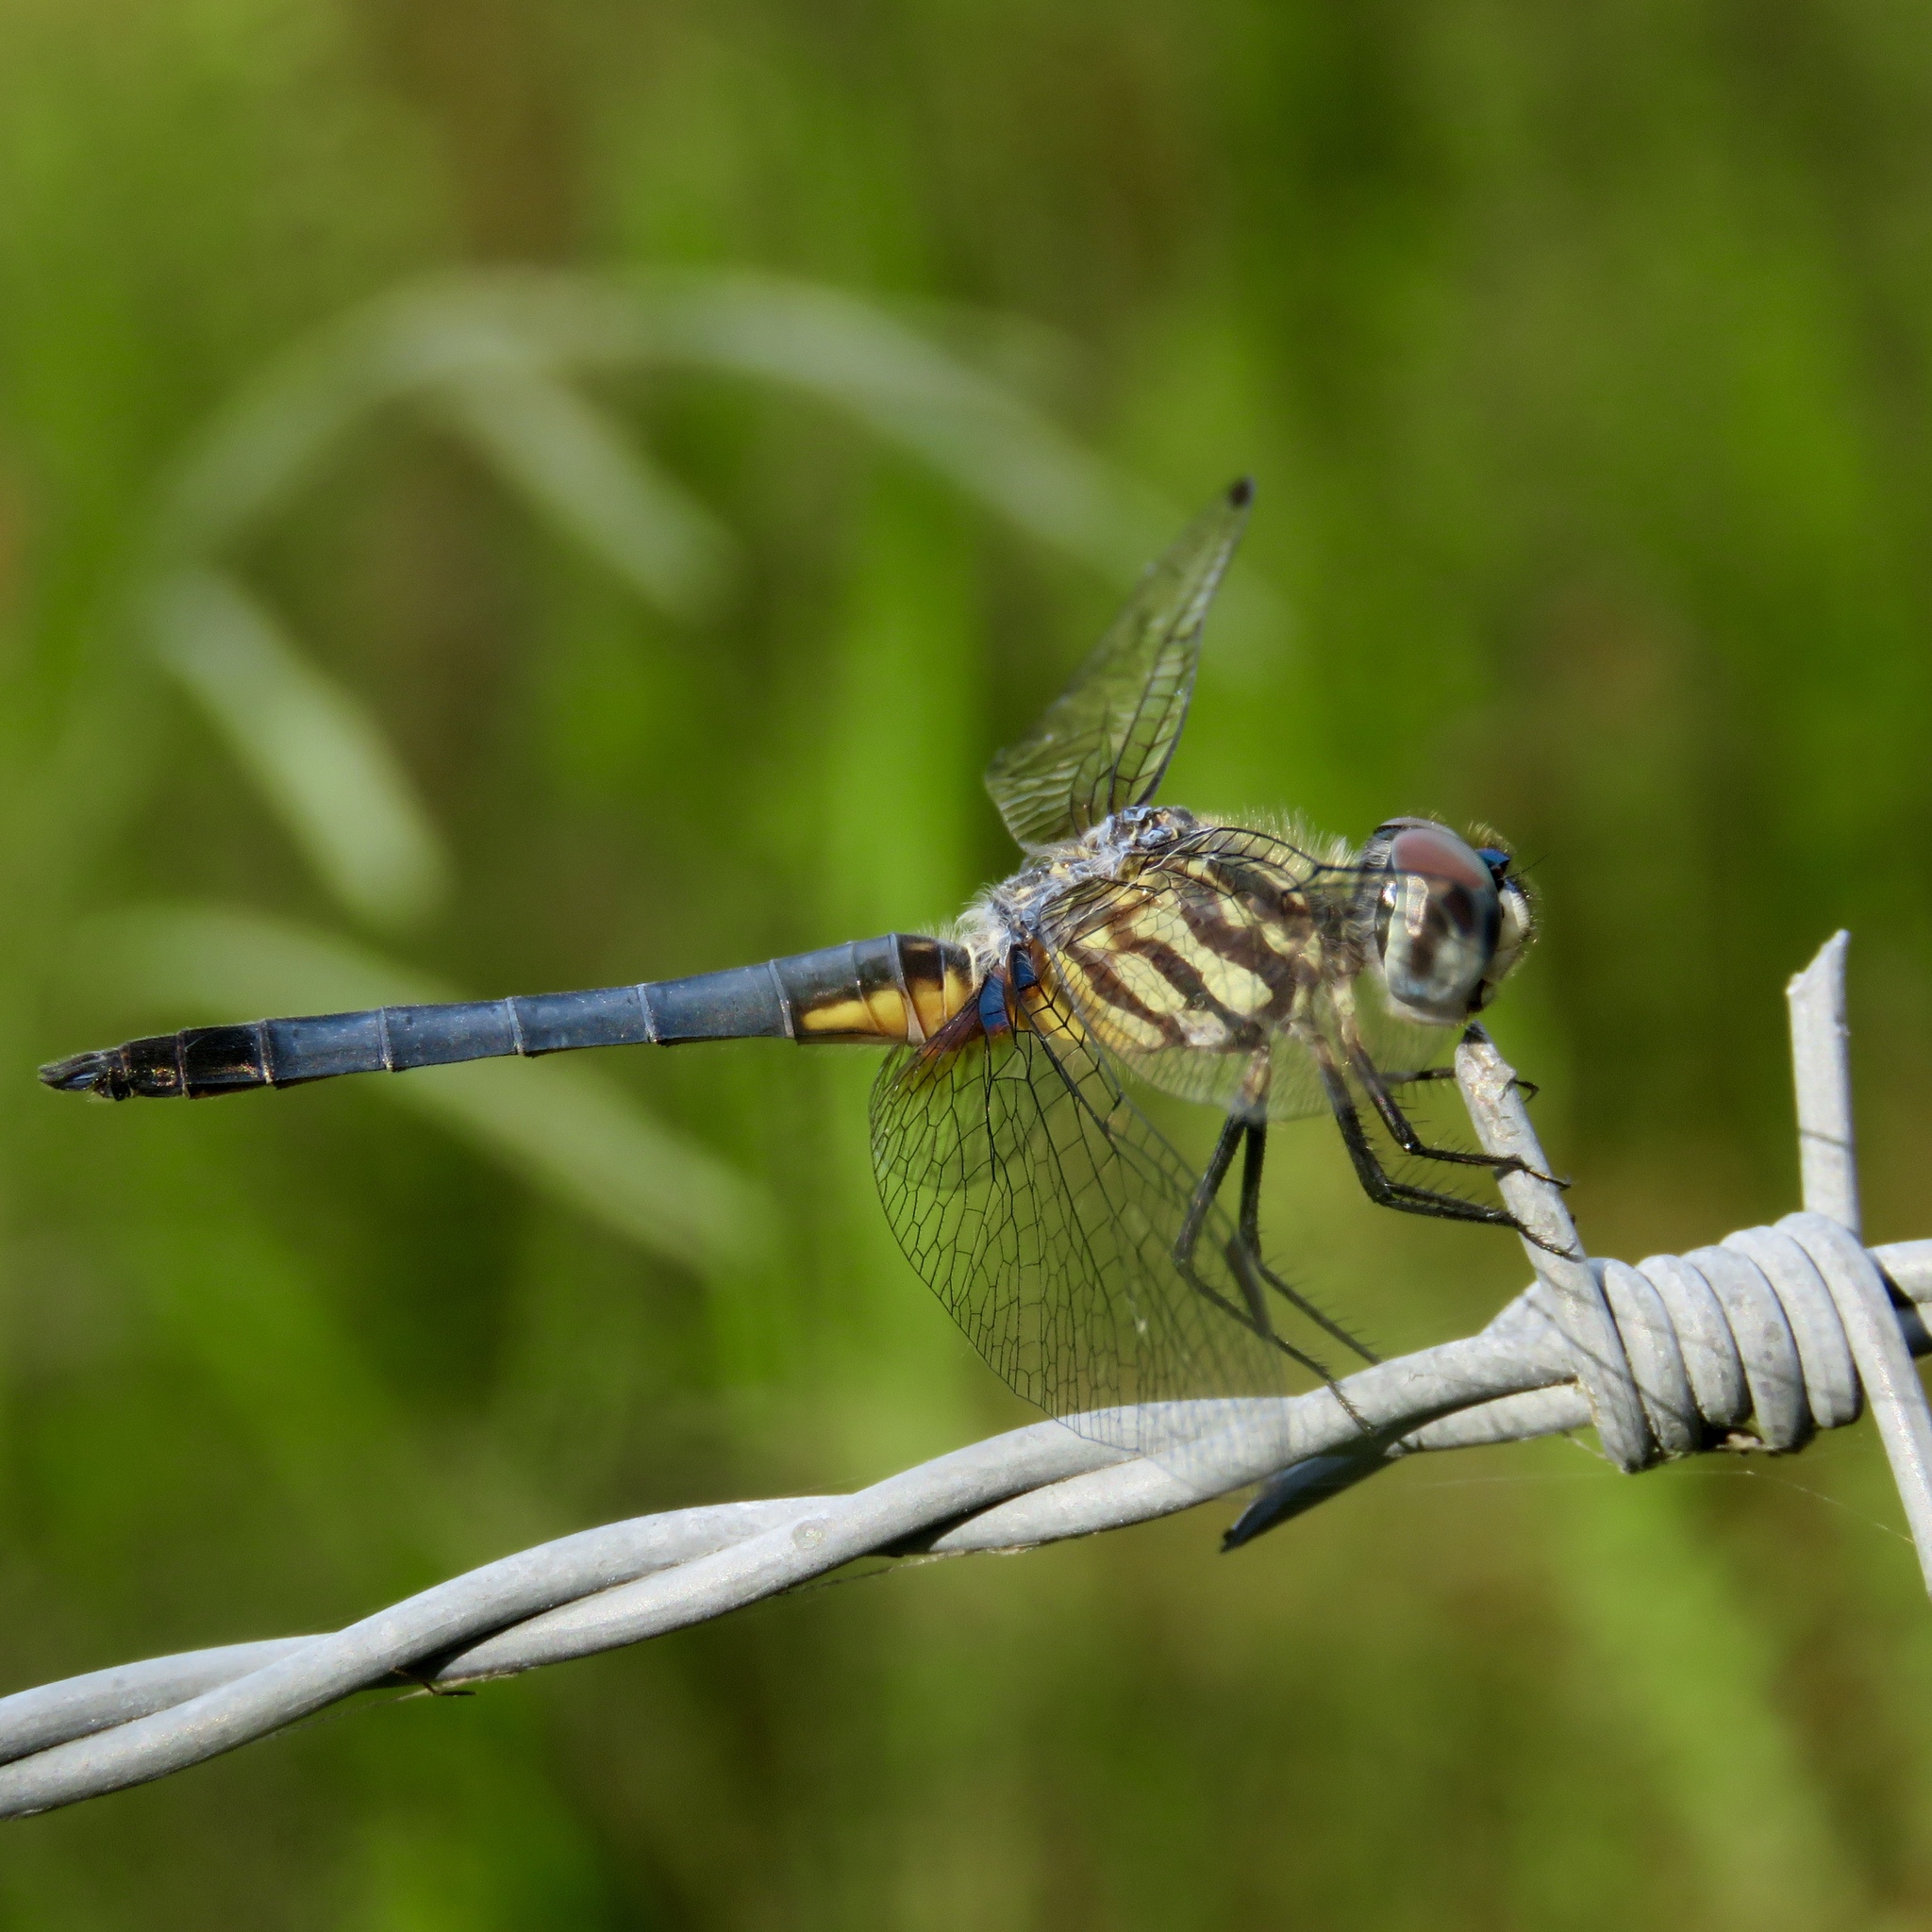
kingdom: Animalia
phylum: Arthropoda
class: Insecta
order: Odonata
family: Libellulidae
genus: Pachydiplax
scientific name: Pachydiplax longipennis
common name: Blue dasher
